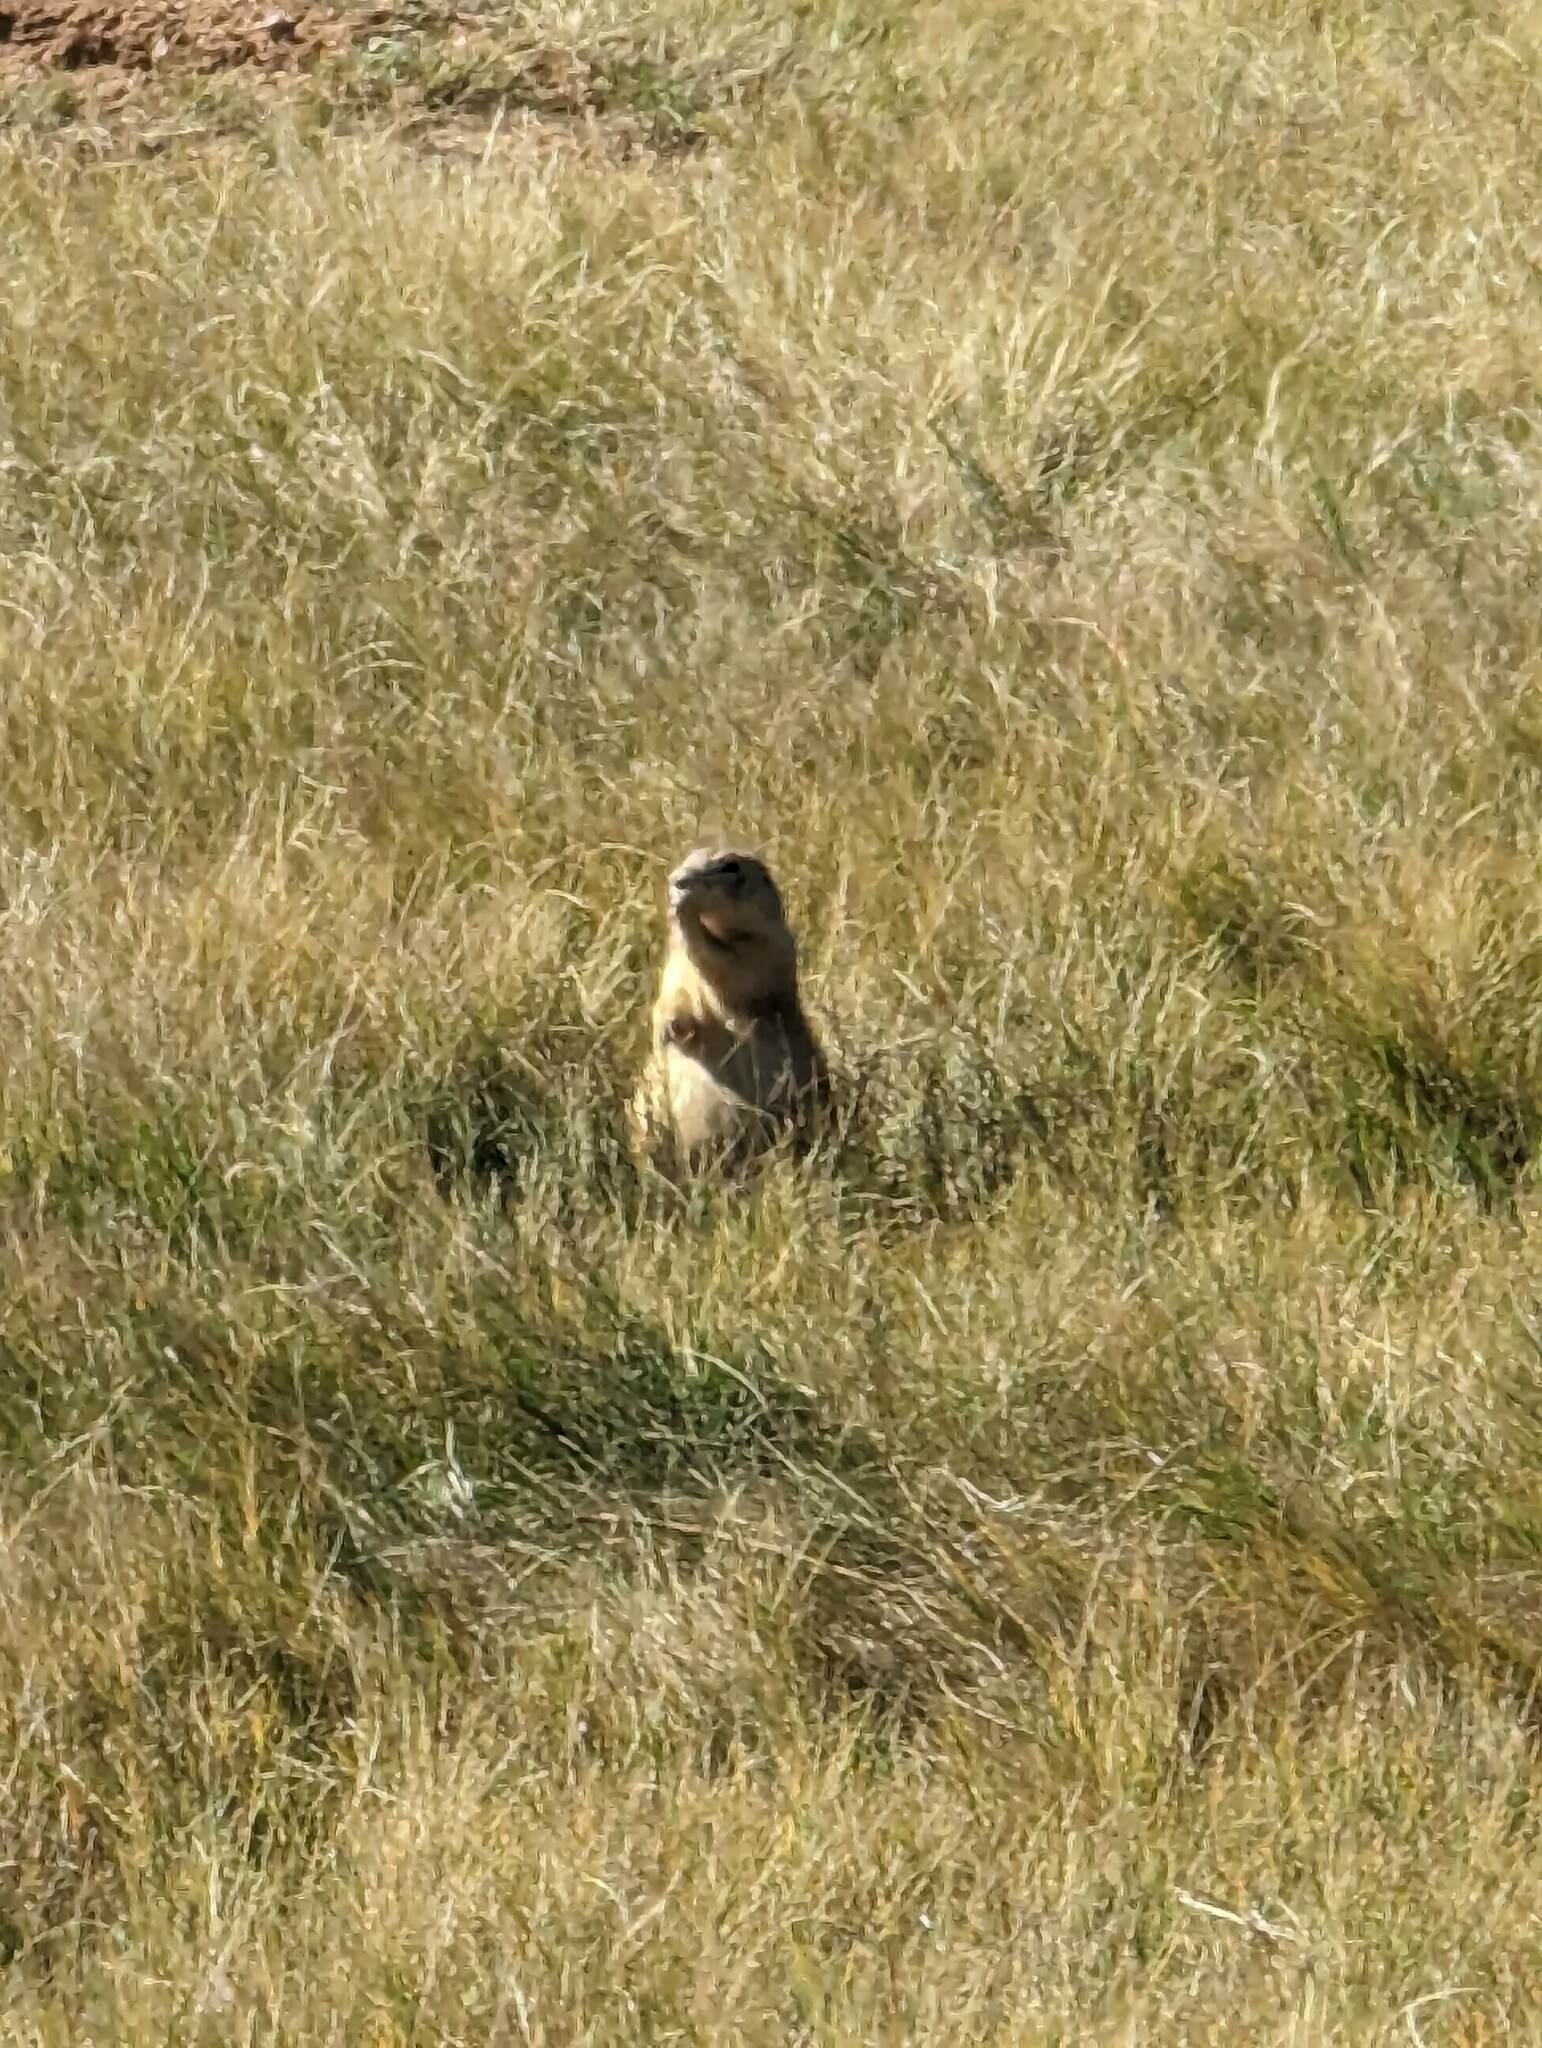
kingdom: Animalia
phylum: Chordata
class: Mammalia
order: Rodentia
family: Sciuridae
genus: Cynomys
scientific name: Cynomys ludovicianus
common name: Black-tailed prairie dog
